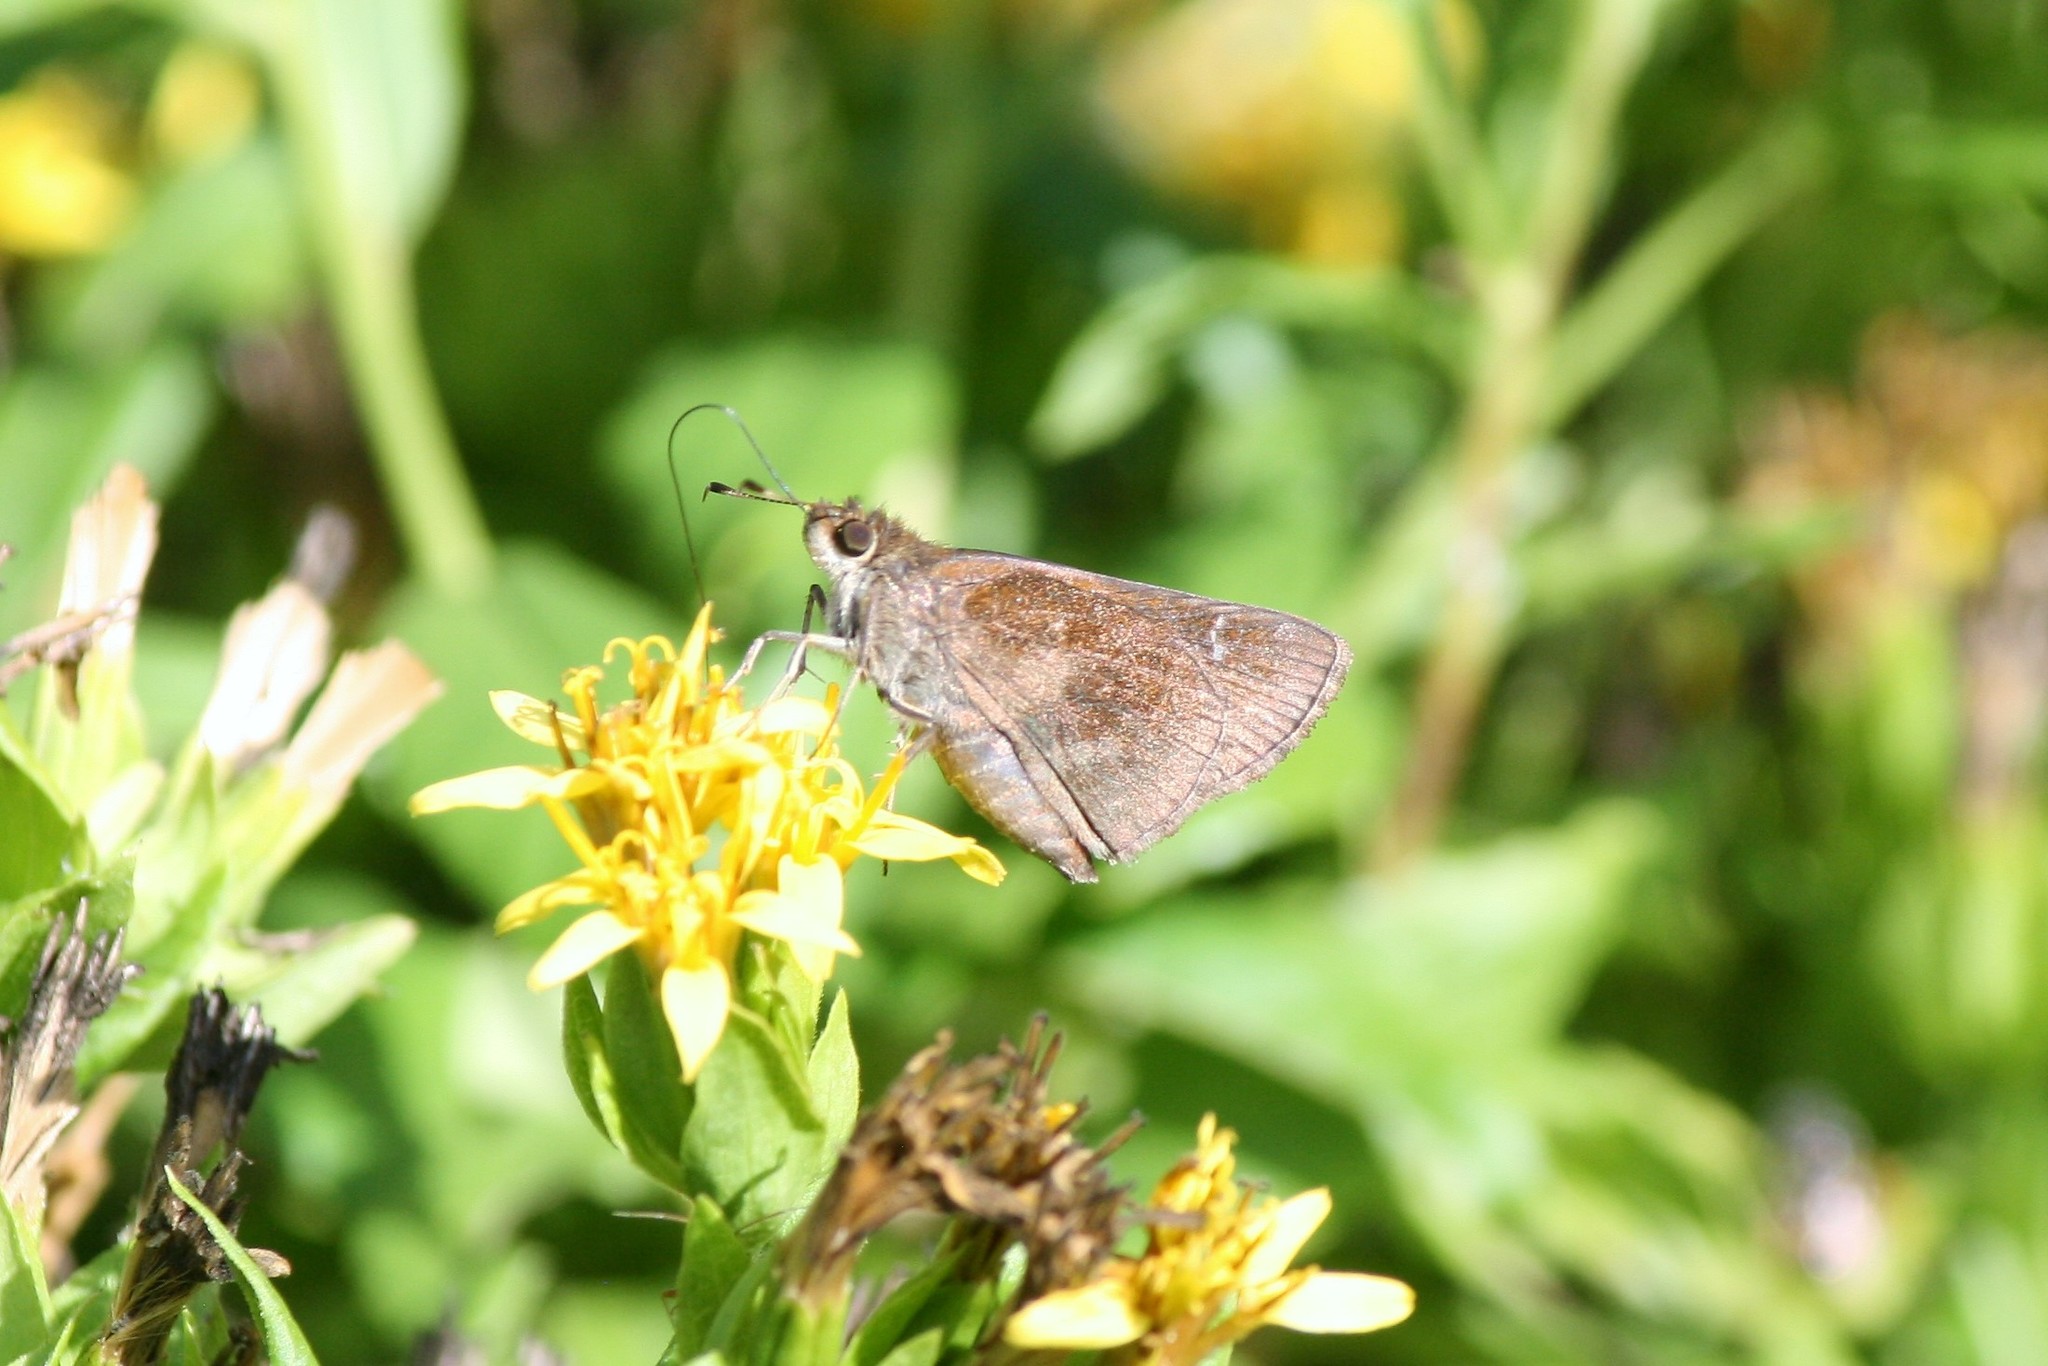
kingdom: Animalia
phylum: Arthropoda
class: Insecta
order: Lepidoptera
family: Hesperiidae
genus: Lerema
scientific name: Lerema accius
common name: Clouded skipper
